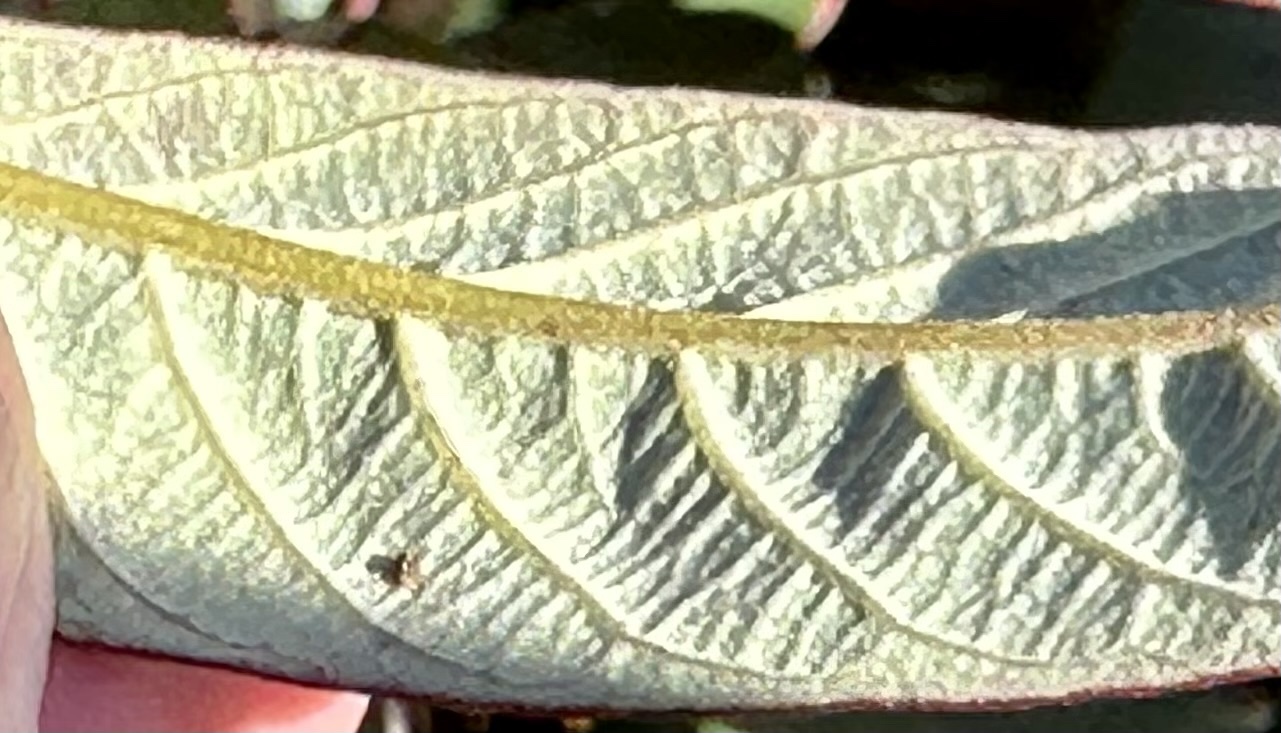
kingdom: Plantae
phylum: Tracheophyta
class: Magnoliopsida
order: Rosales
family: Rhamnaceae
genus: Frangula
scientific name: Frangula californica
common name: California buckthorn
